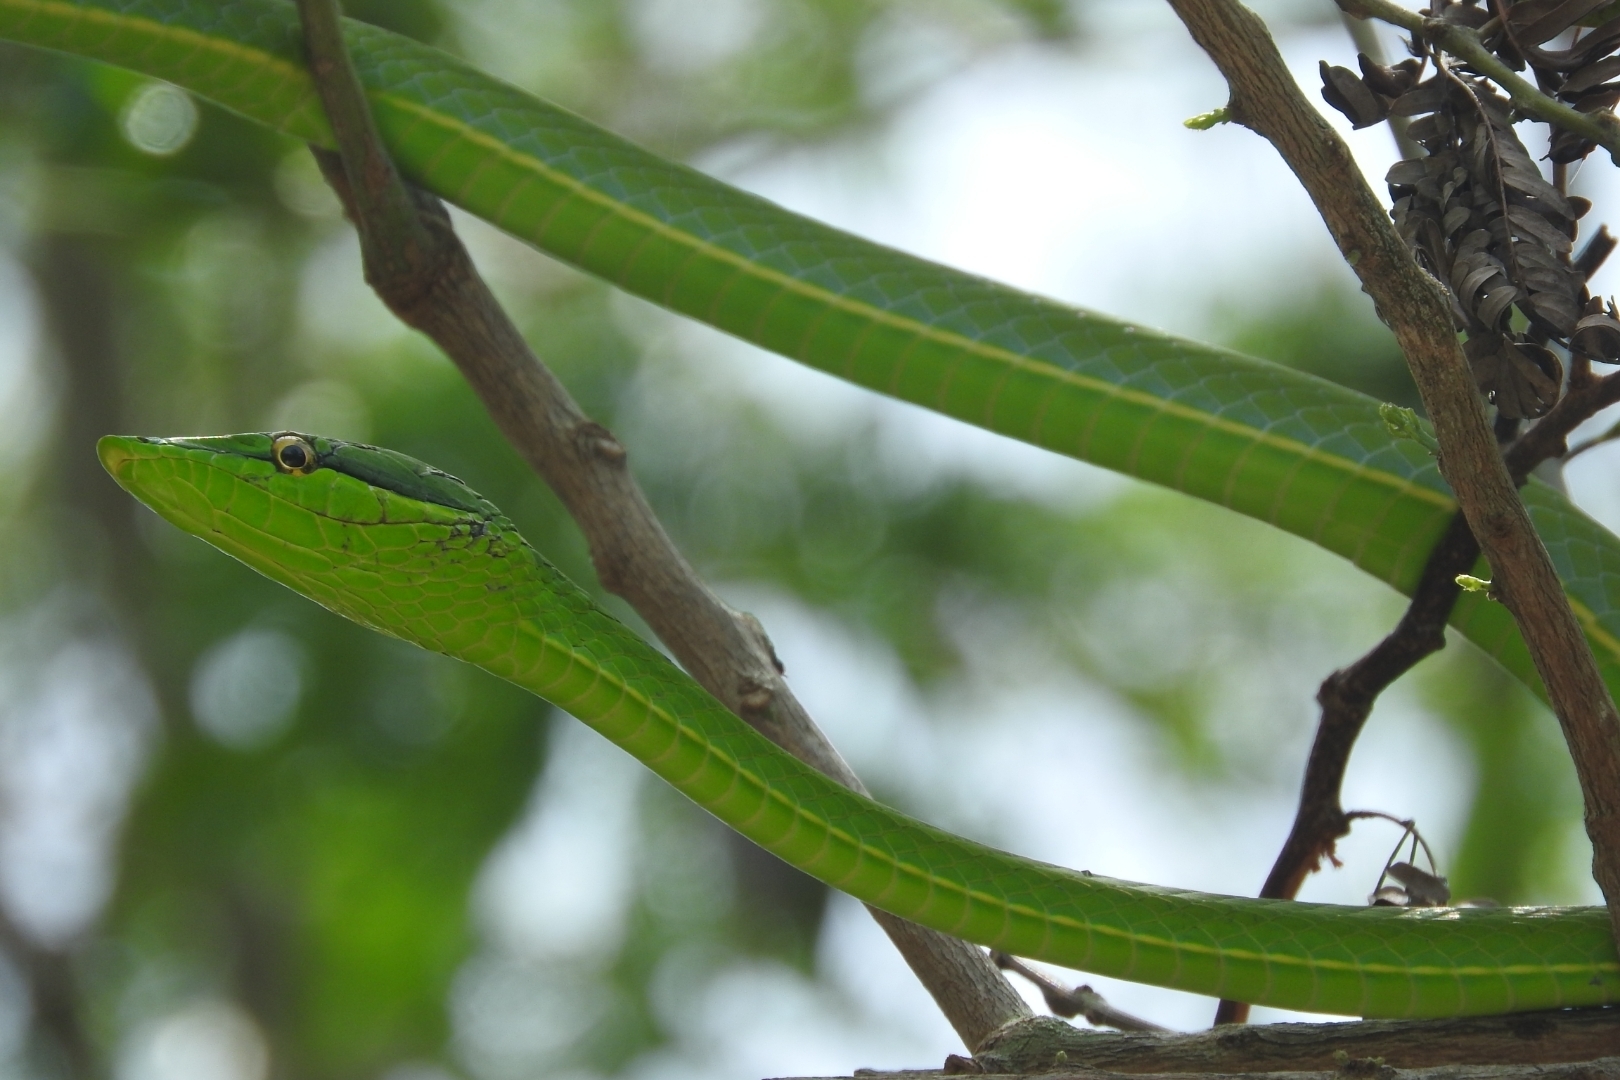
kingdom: Animalia
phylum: Chordata
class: Squamata
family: Colubridae
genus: Oxybelis
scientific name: Oxybelis fulgidus
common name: Green vine snake
